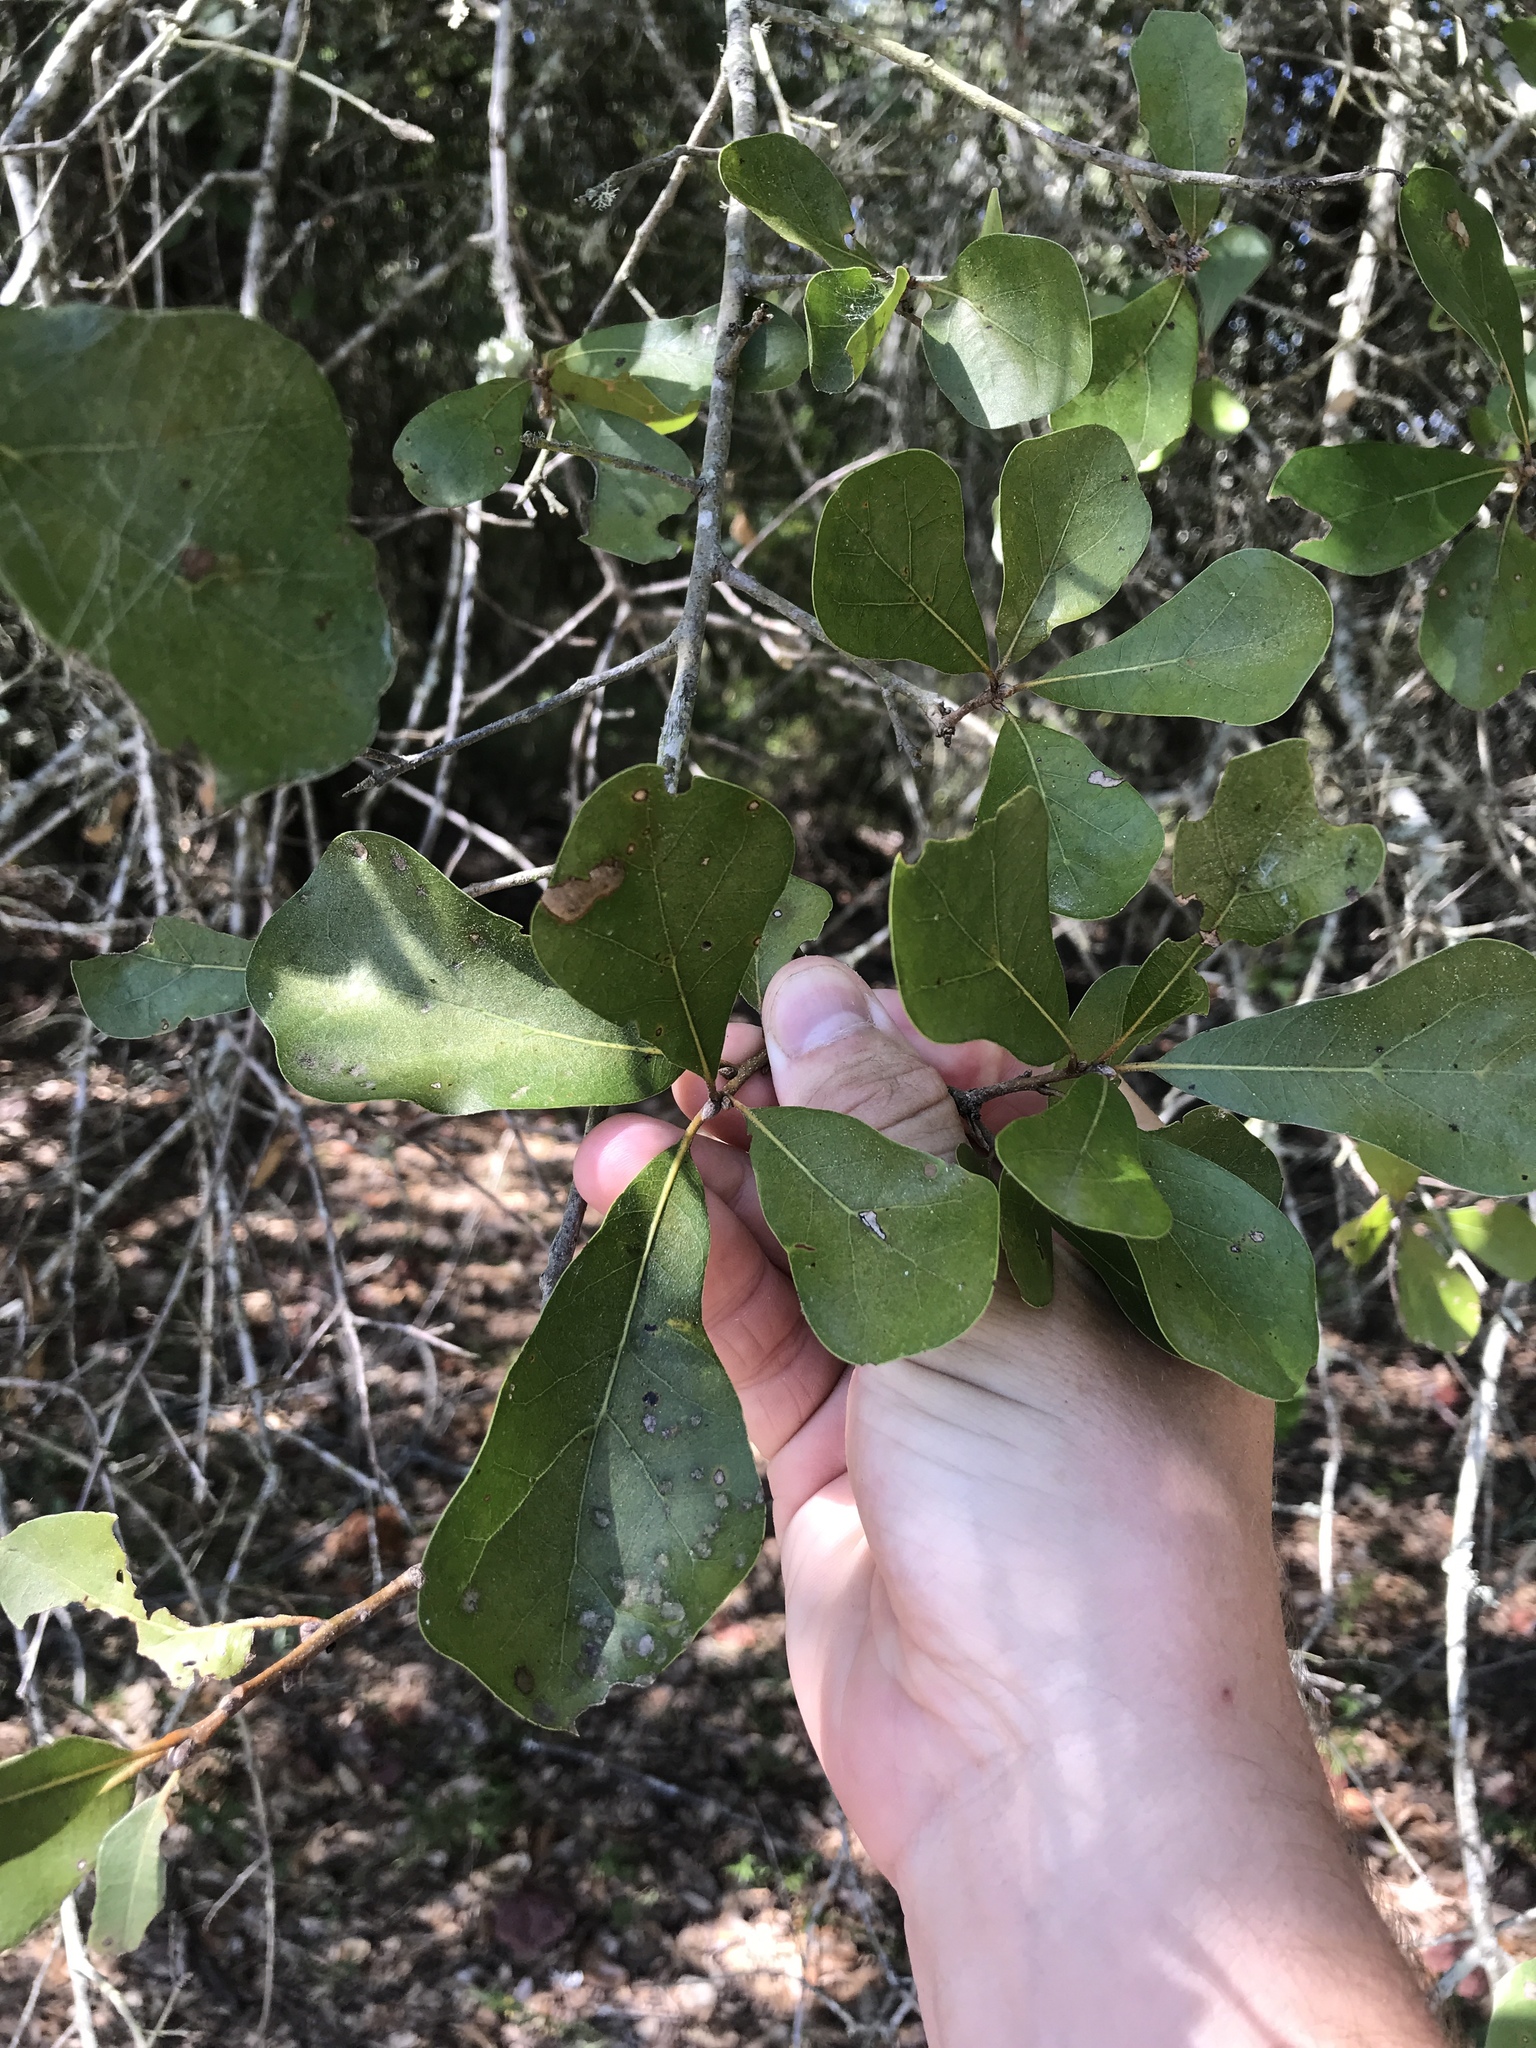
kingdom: Plantae
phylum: Tracheophyta
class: Magnoliopsida
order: Fagales
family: Fagaceae
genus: Quercus
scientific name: Quercus nigra
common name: Water oak
